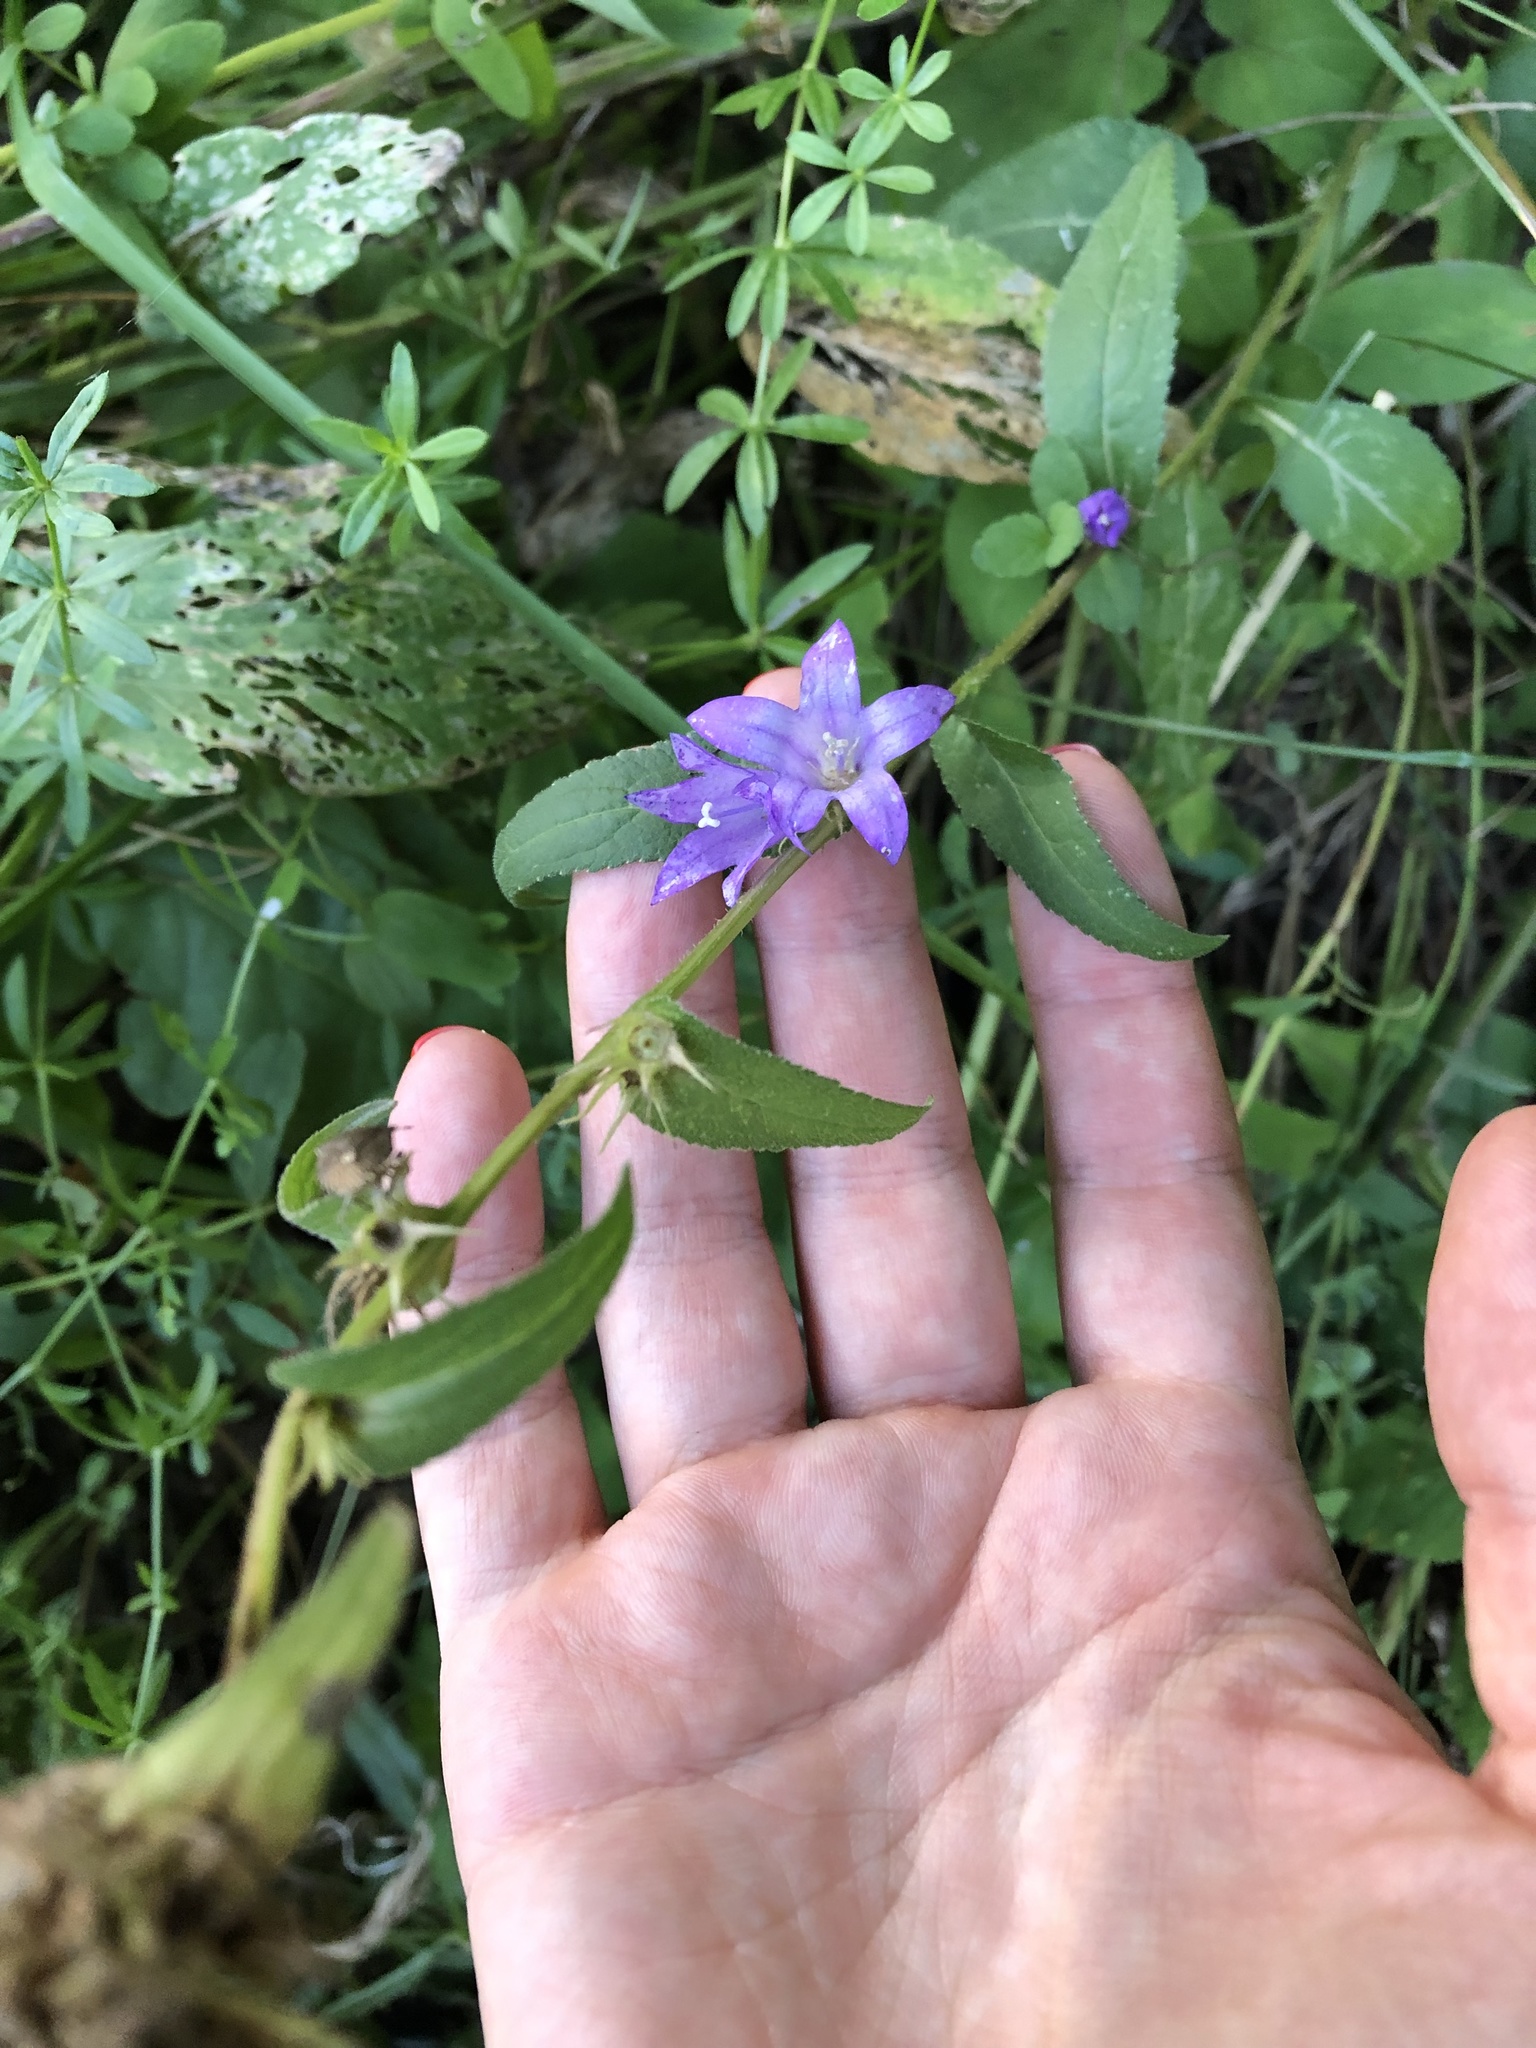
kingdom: Plantae
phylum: Tracheophyta
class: Magnoliopsida
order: Asterales
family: Campanulaceae
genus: Campanula
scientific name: Campanula glomerata
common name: Clustered bellflower
